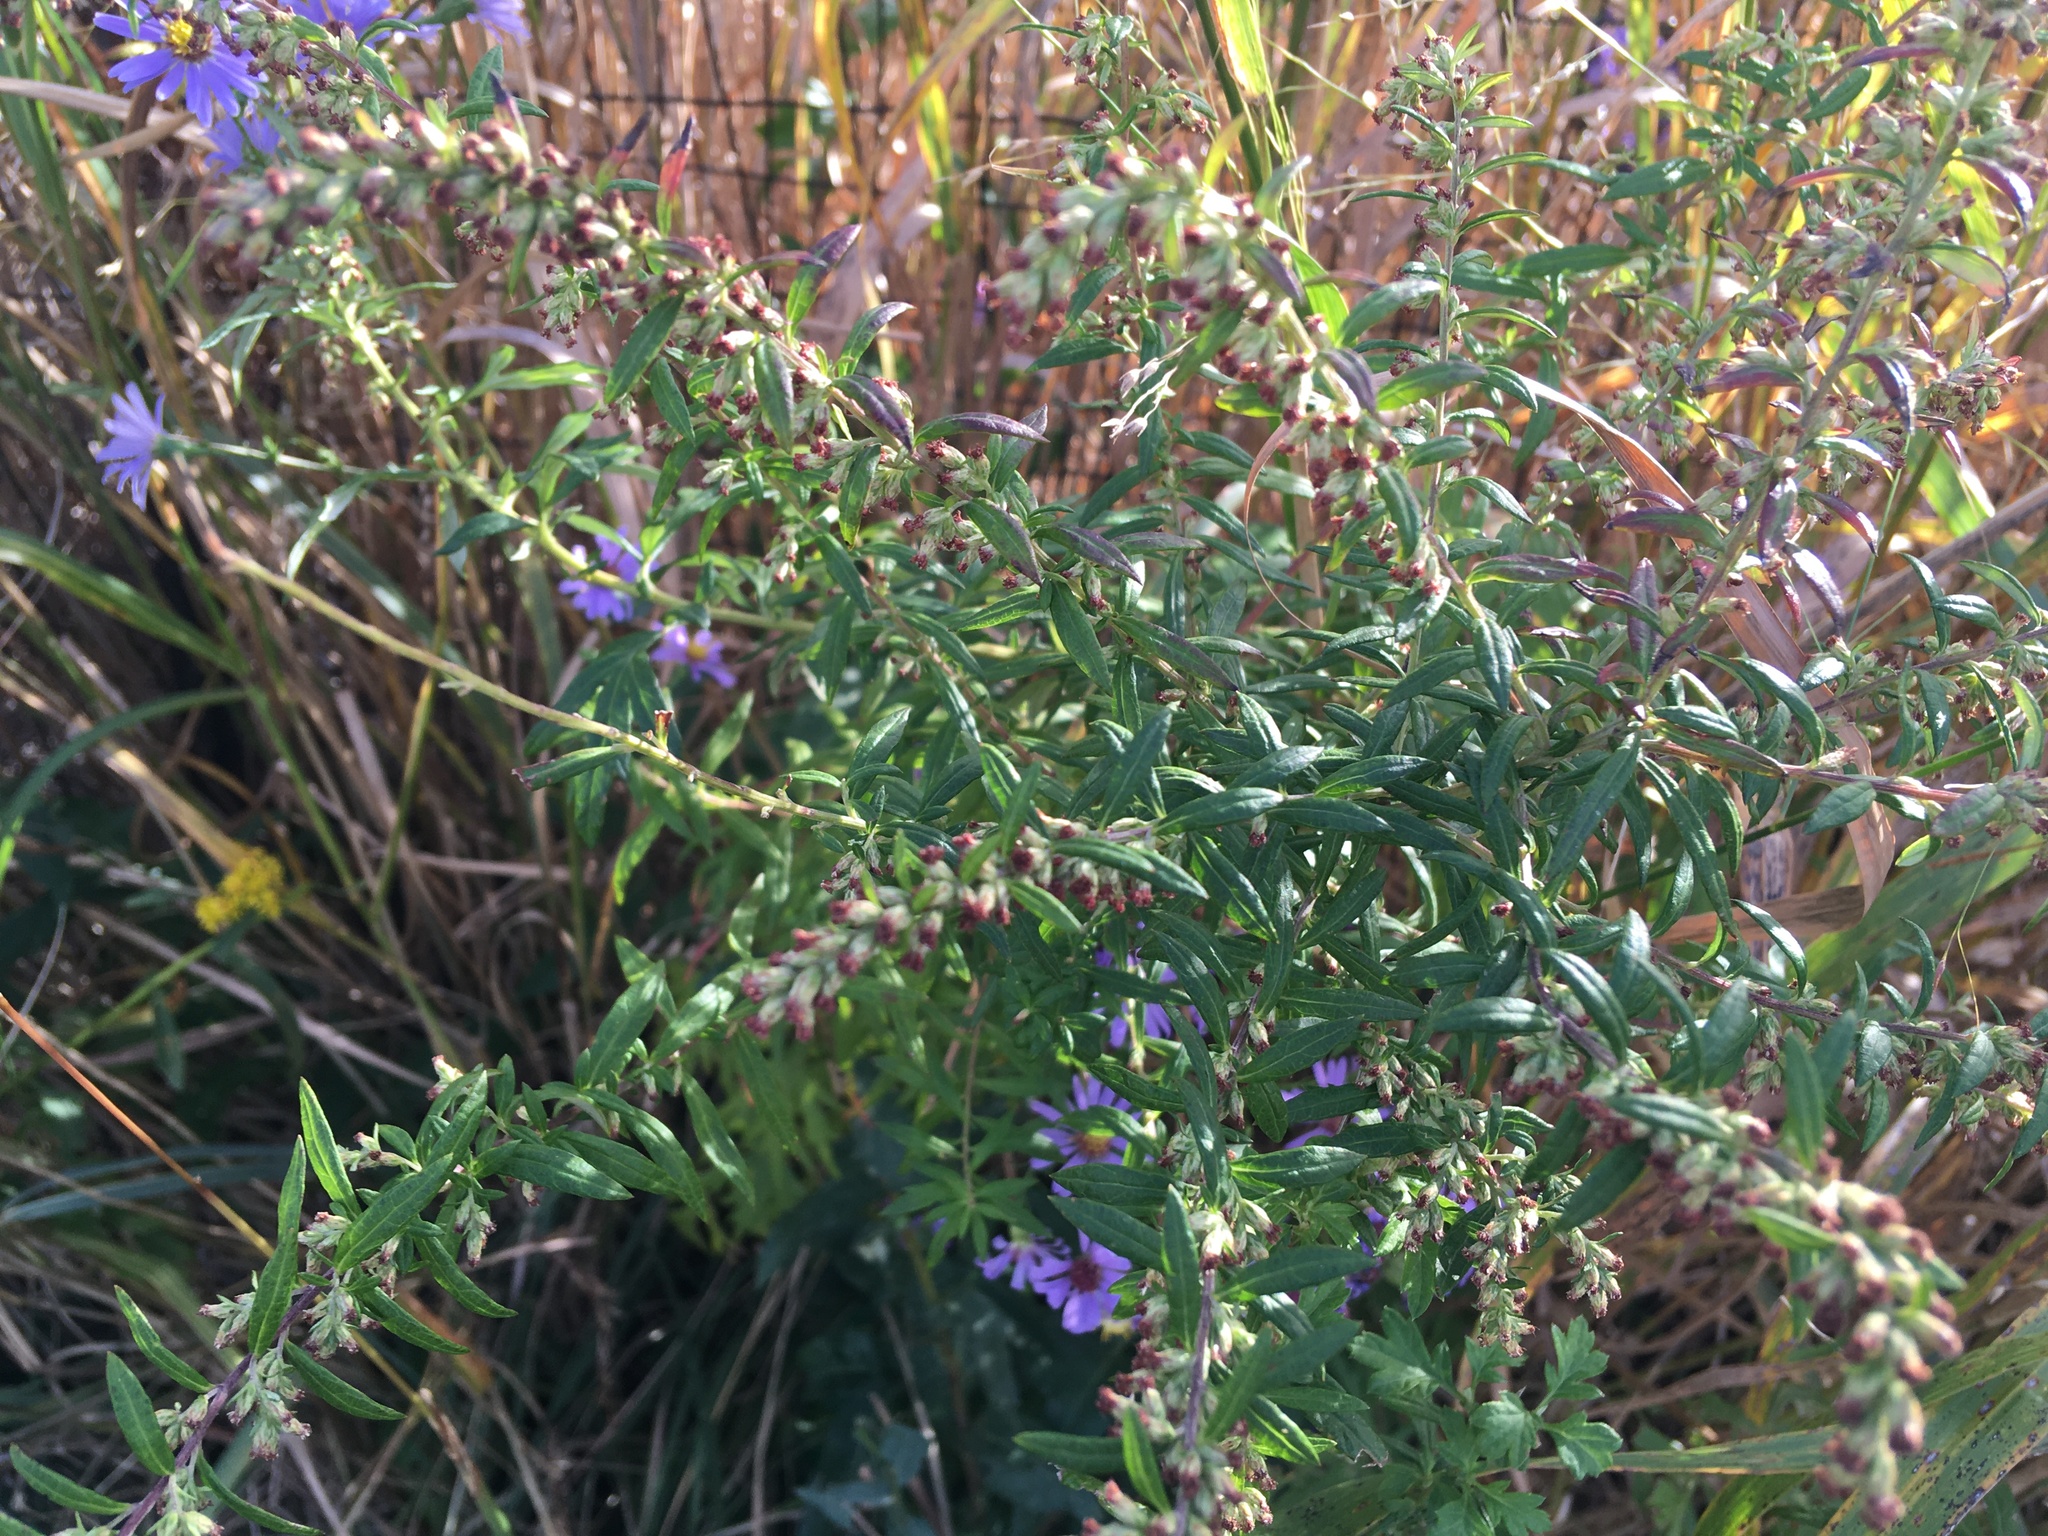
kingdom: Plantae
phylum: Tracheophyta
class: Magnoliopsida
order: Asterales
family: Asteraceae
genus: Artemisia
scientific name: Artemisia vulgaris
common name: Mugwort
